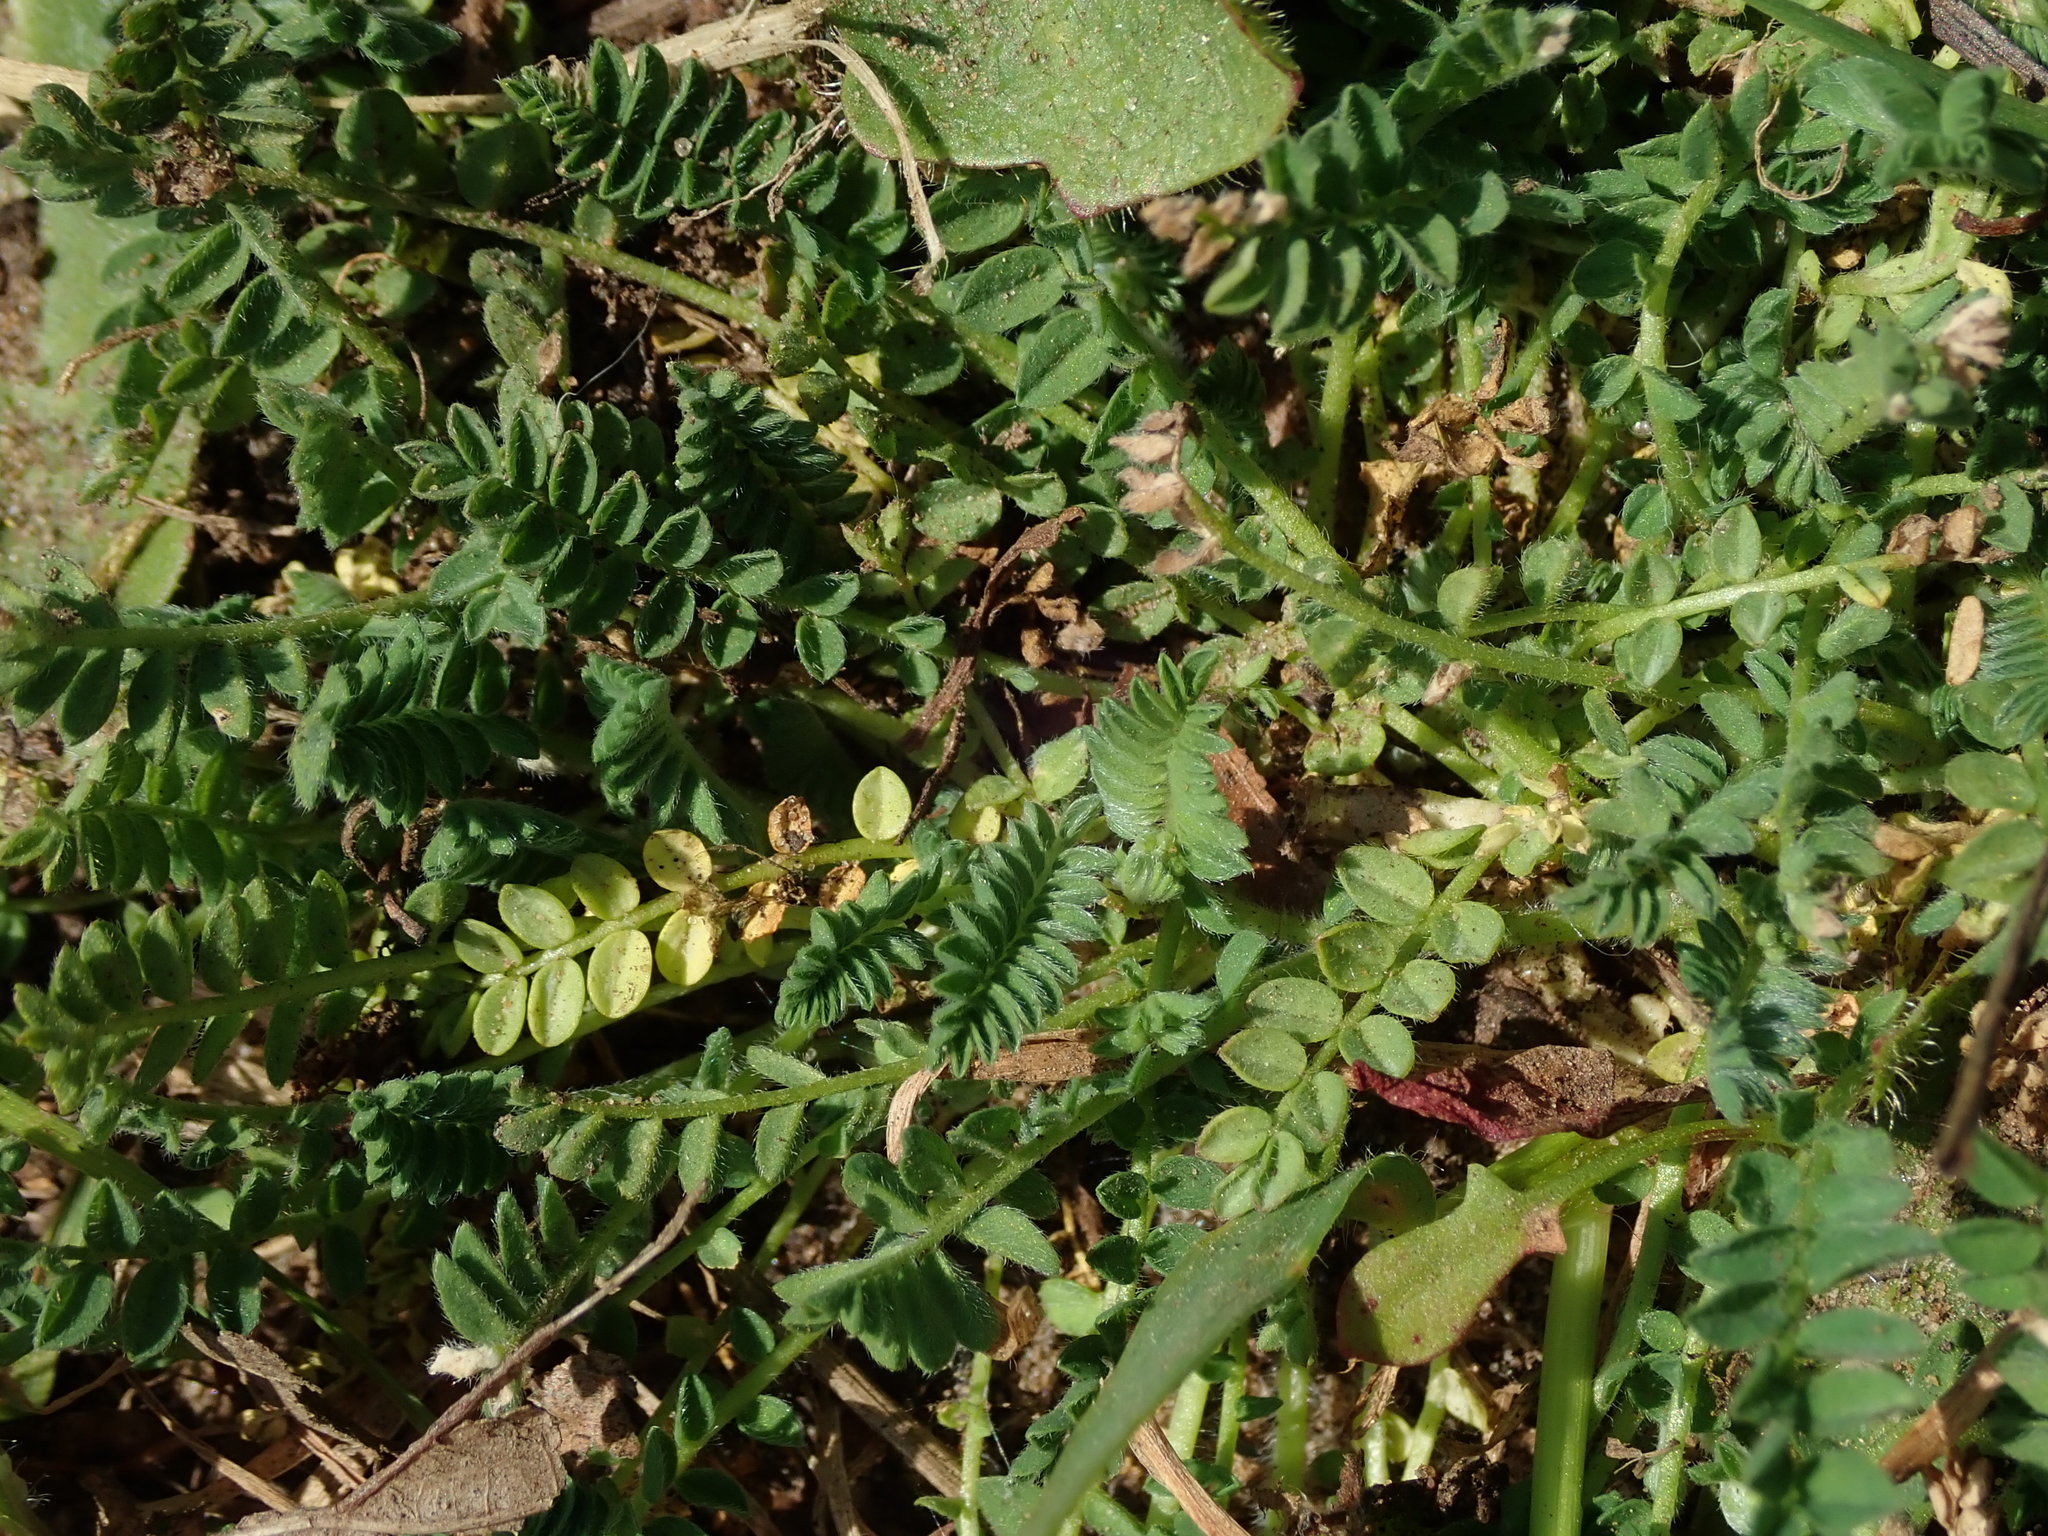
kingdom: Plantae
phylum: Tracheophyta
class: Magnoliopsida
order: Fabales
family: Fabaceae
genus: Ornithopus
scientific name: Ornithopus perpusillus
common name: Bird's-foot
